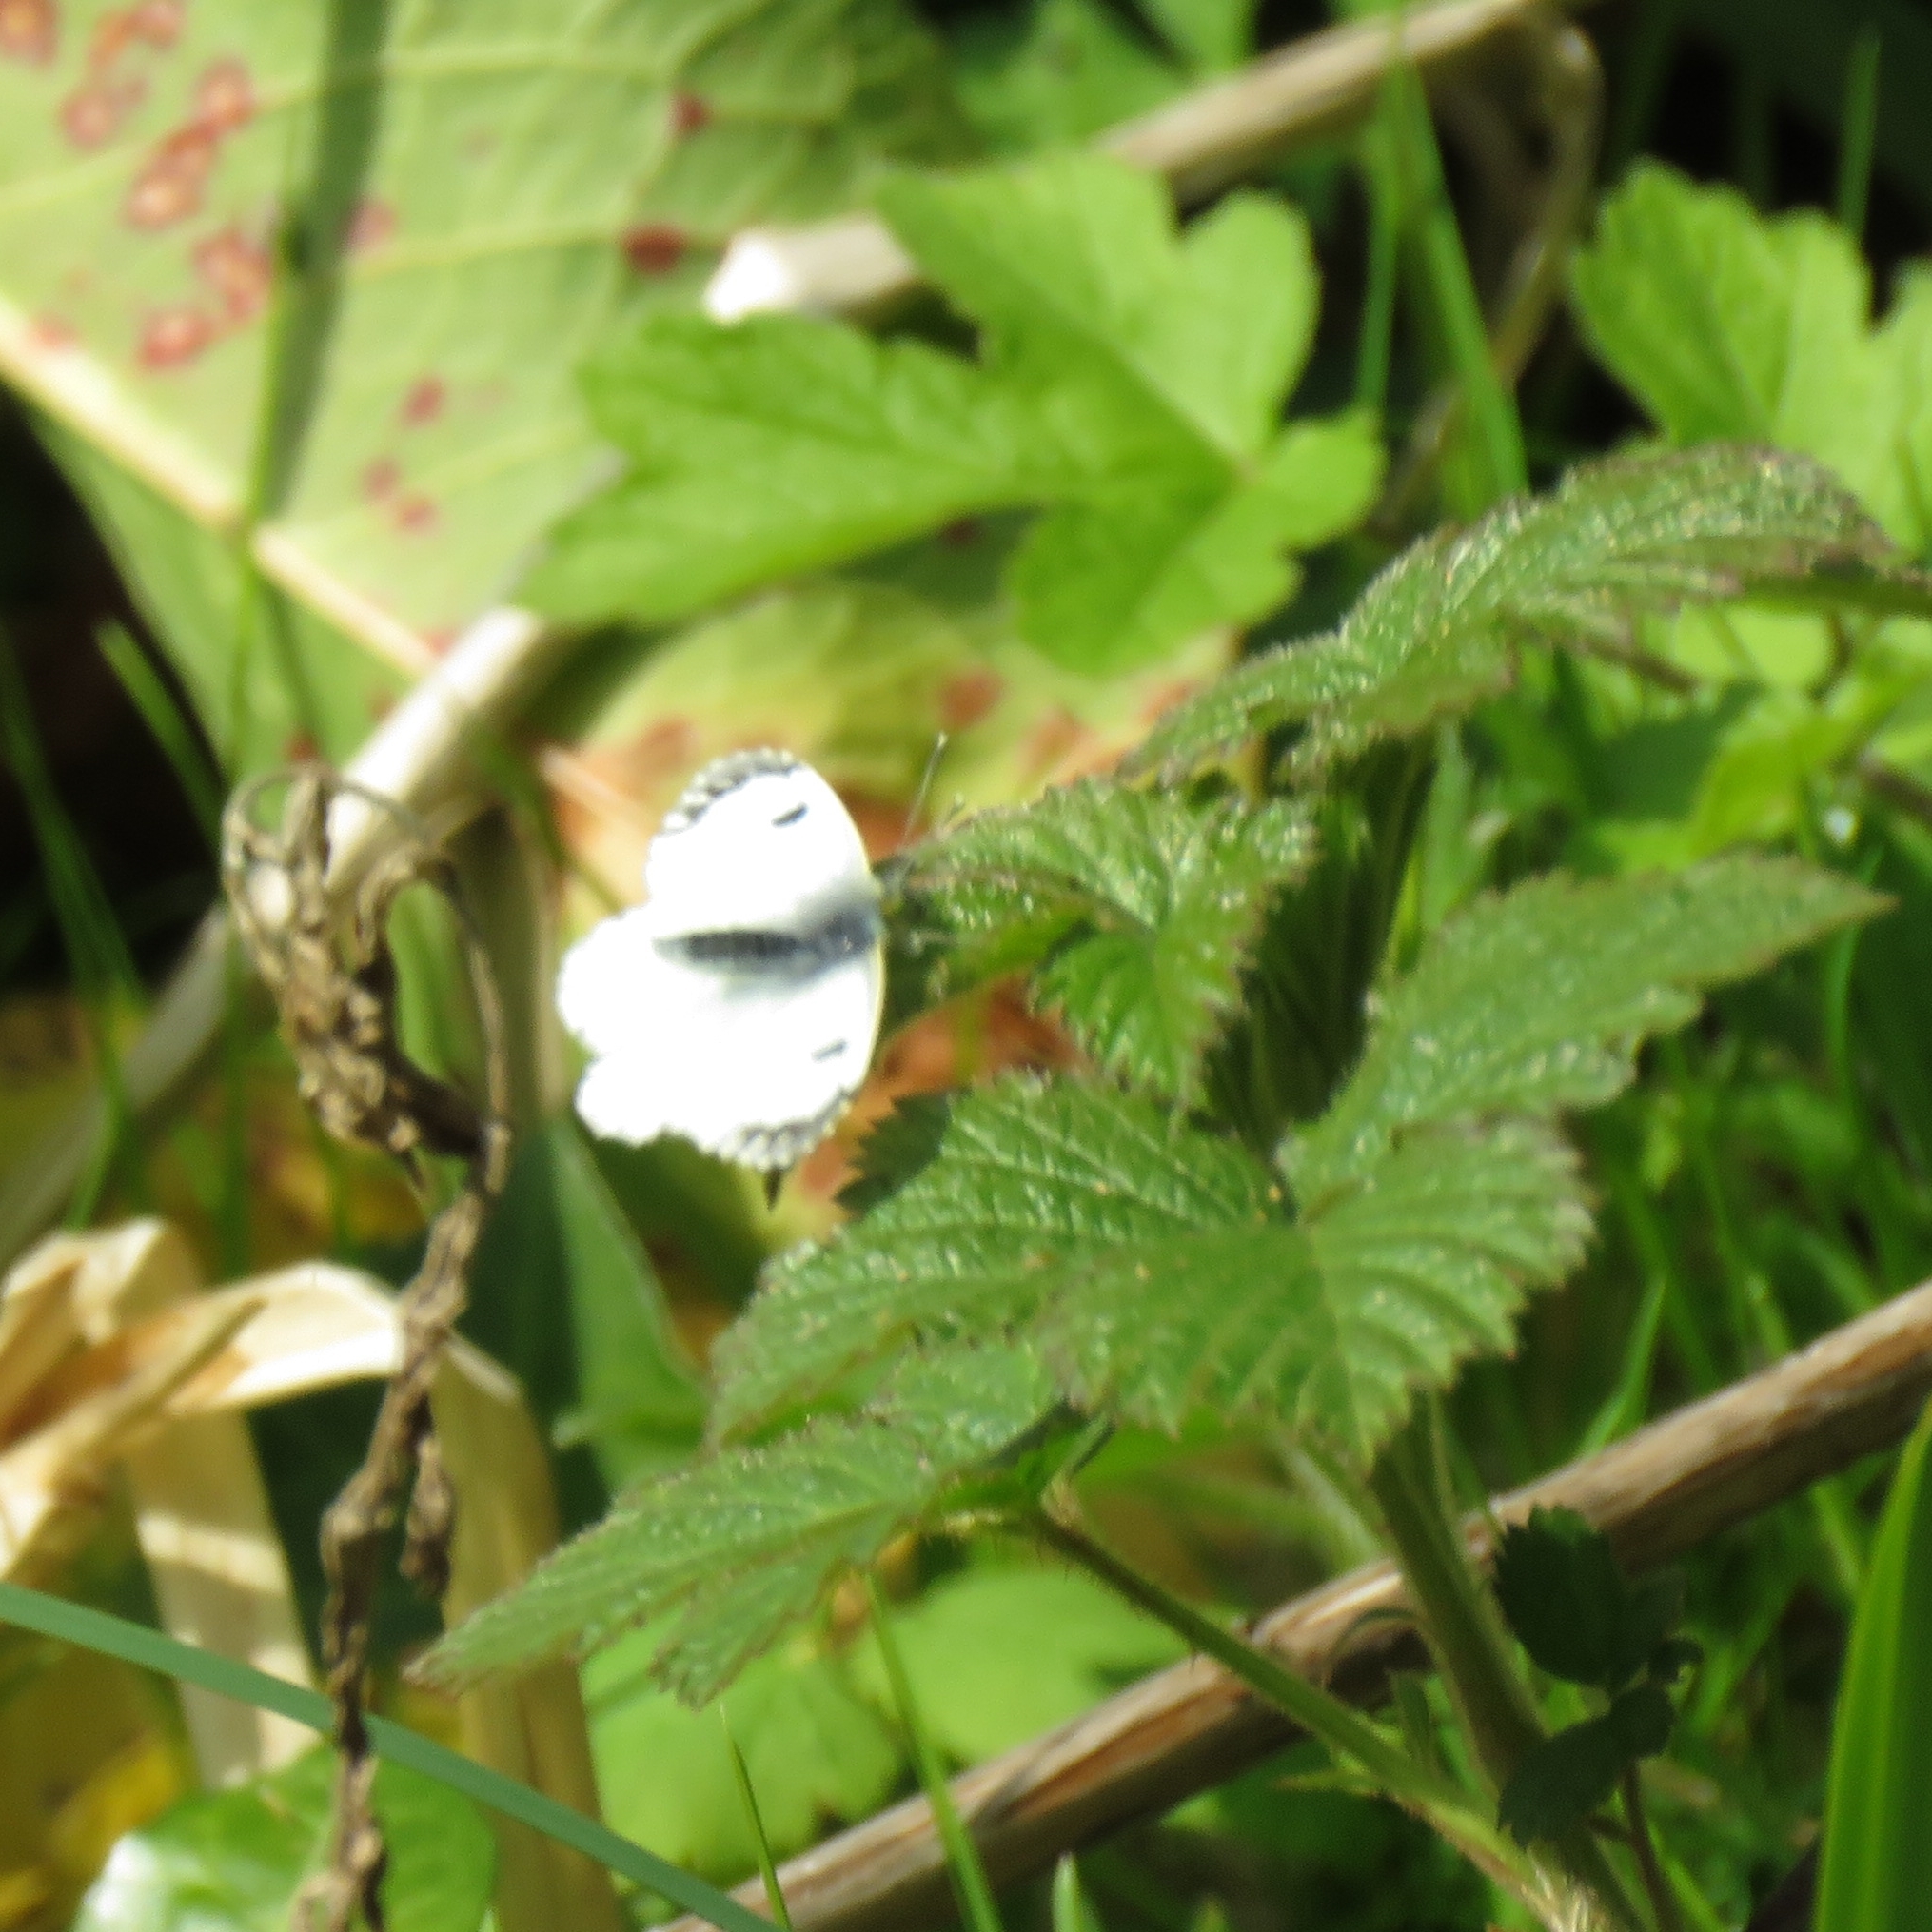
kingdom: Animalia
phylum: Arthropoda
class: Insecta
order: Lepidoptera
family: Pieridae
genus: Anthocharis
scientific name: Anthocharis cardamines
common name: Orange-tip
